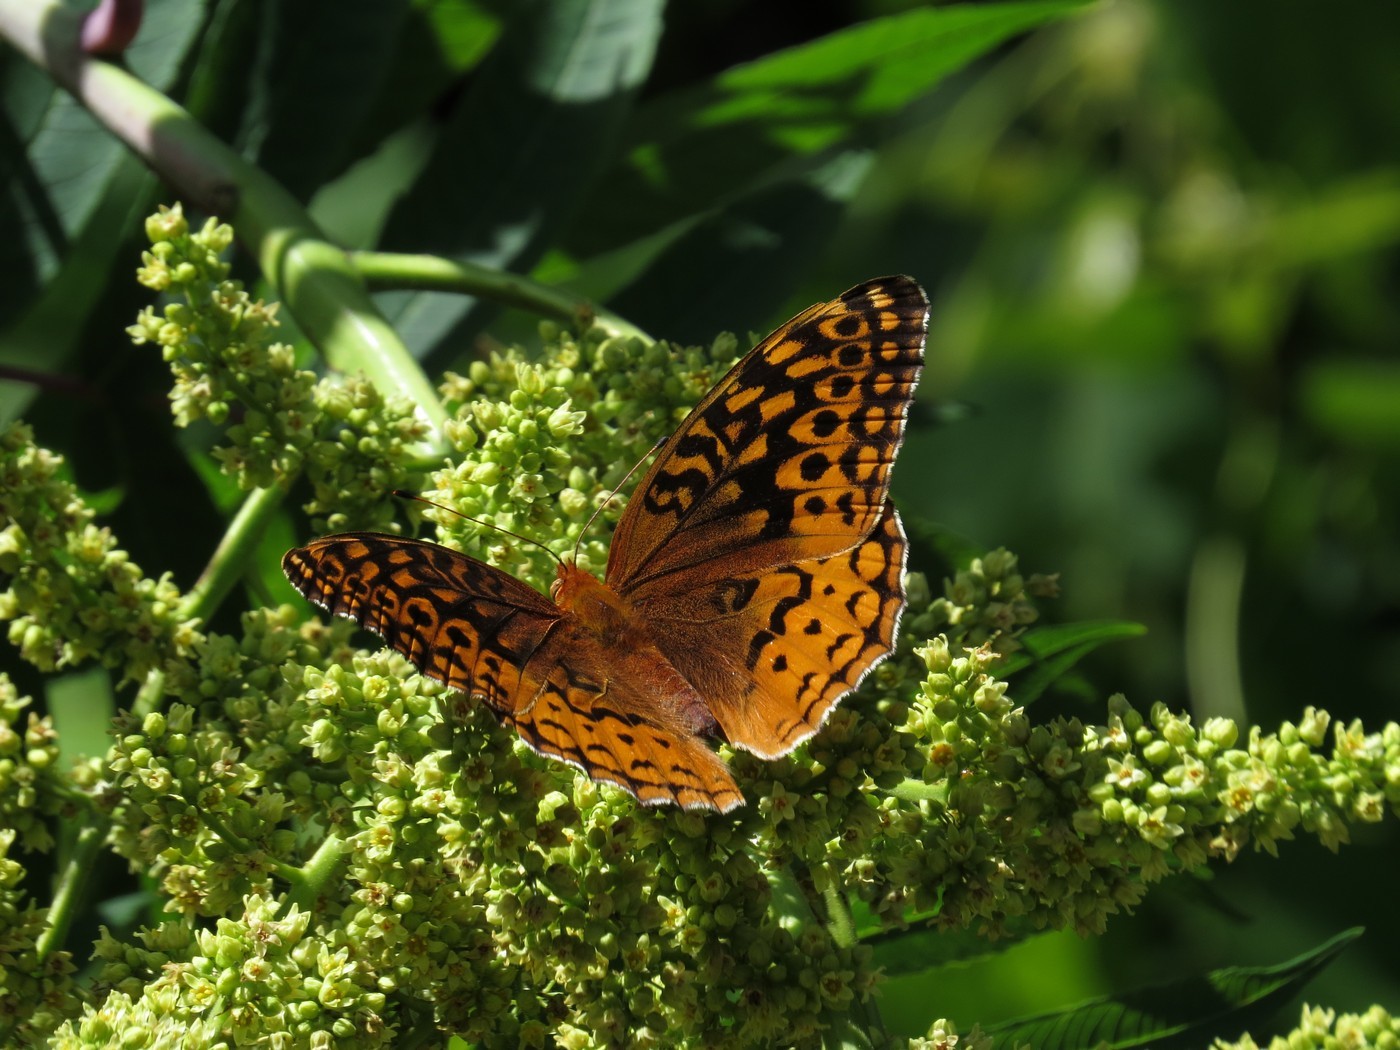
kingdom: Animalia
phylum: Arthropoda
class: Insecta
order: Lepidoptera
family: Nymphalidae
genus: Speyeria
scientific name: Speyeria cybele
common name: Great spangled fritillary
